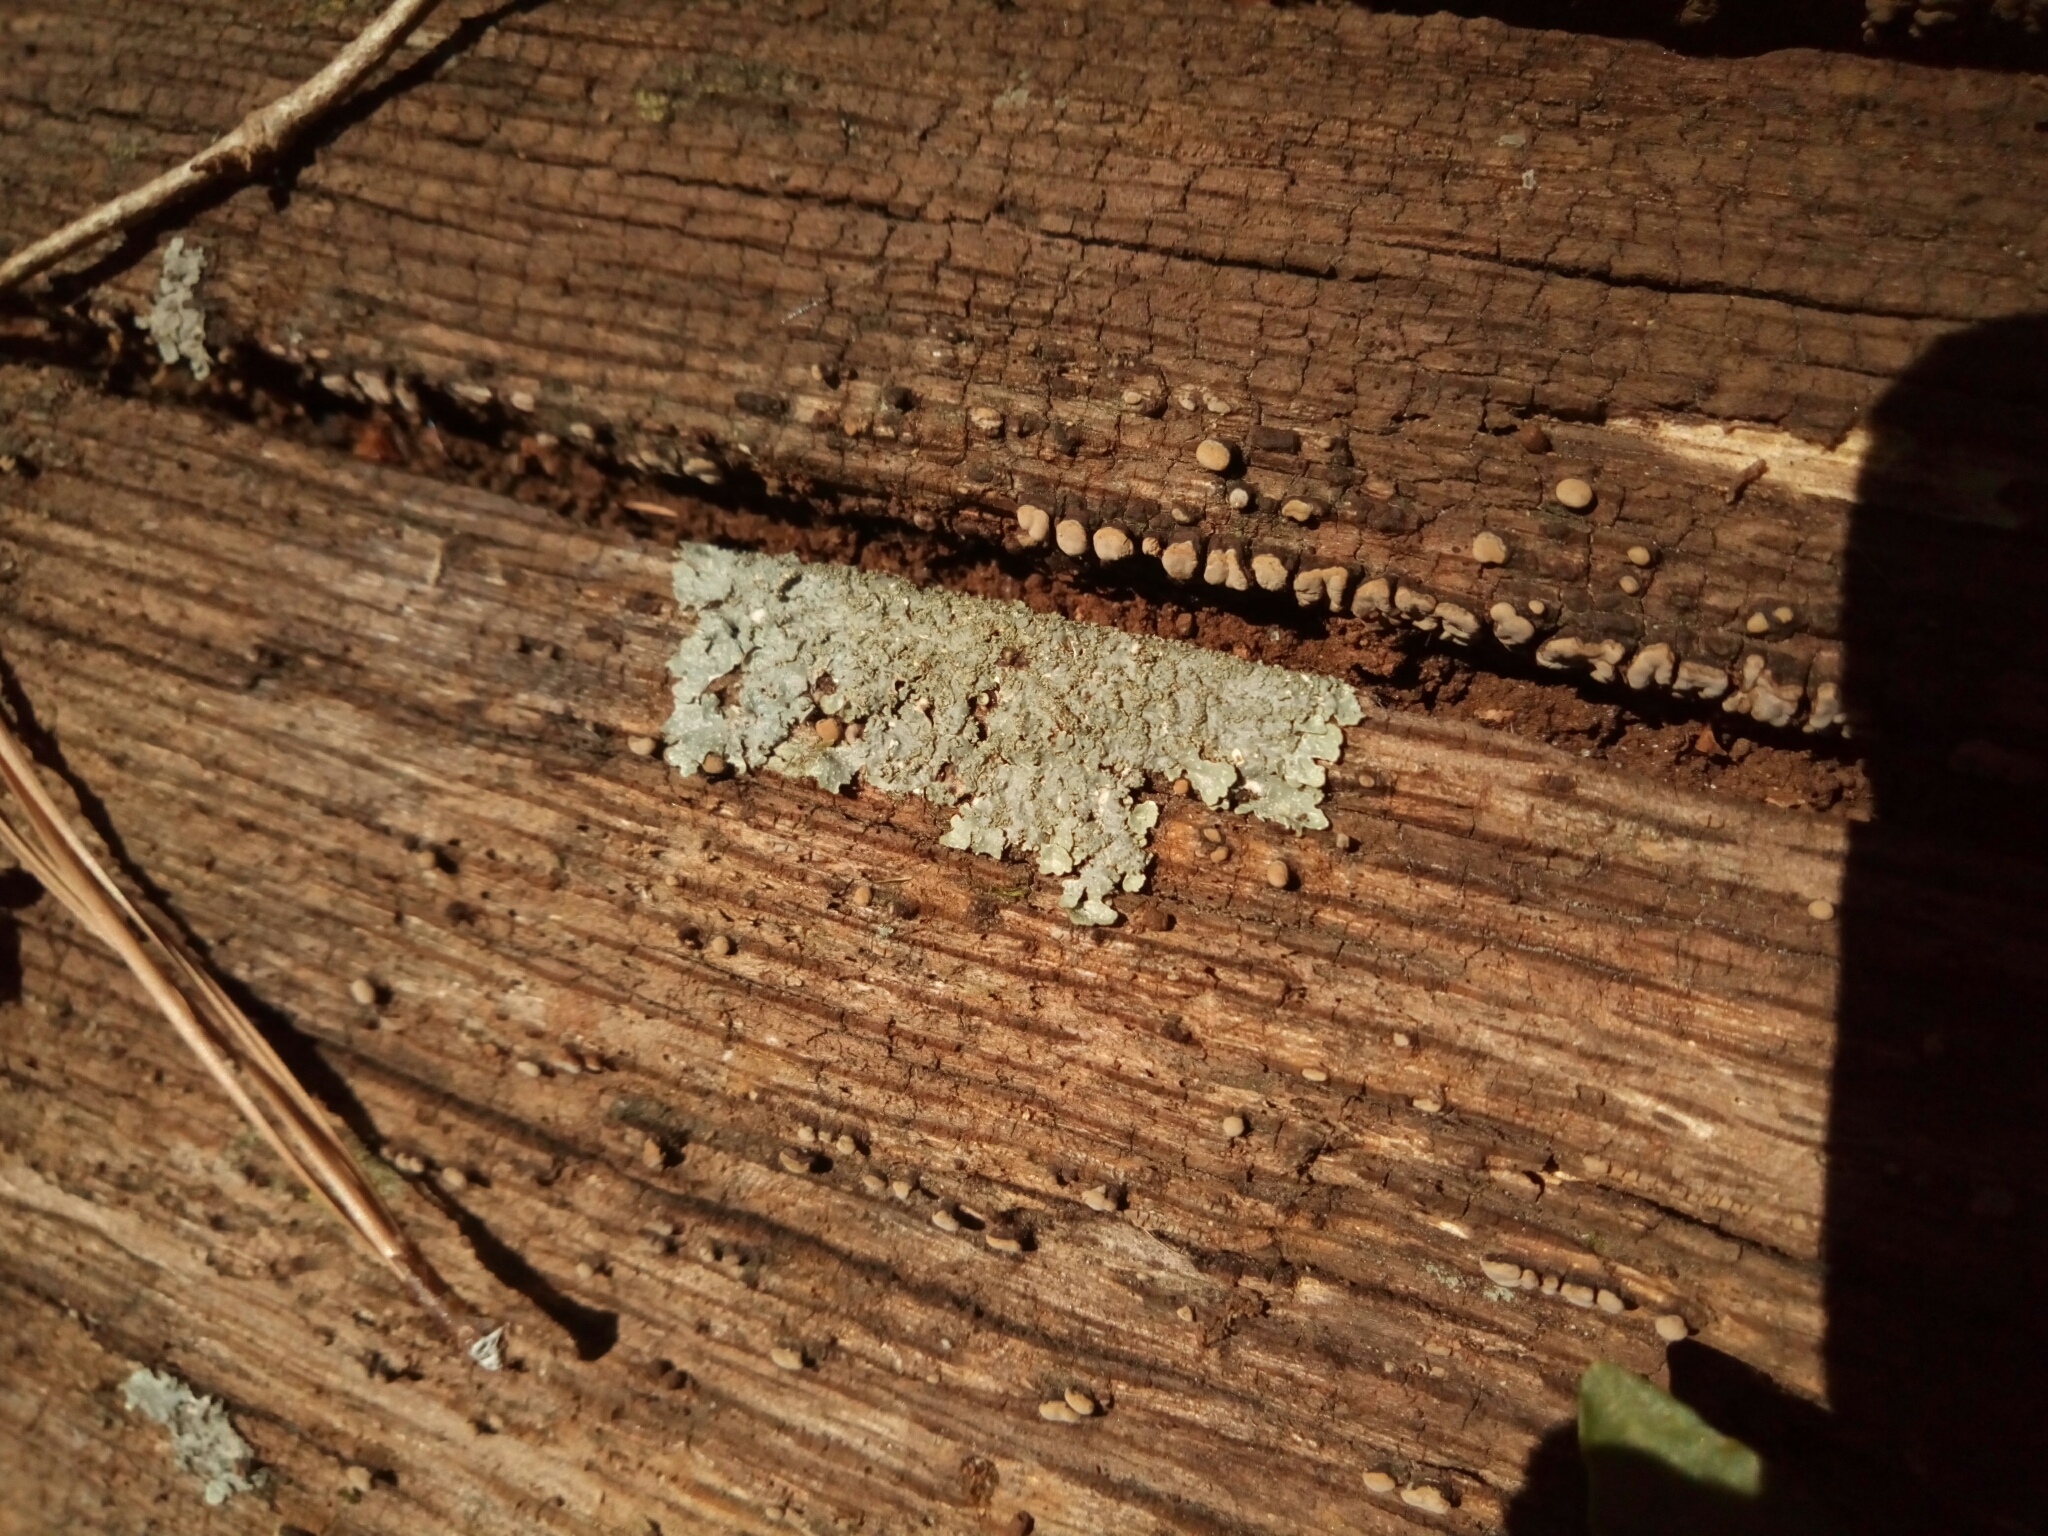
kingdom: Fungi
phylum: Ascomycota
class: Lecanoromycetes
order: Lecanorales
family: Parmeliaceae
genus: Punctelia
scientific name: Punctelia rudecta
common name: Rough speckled shield lichen
